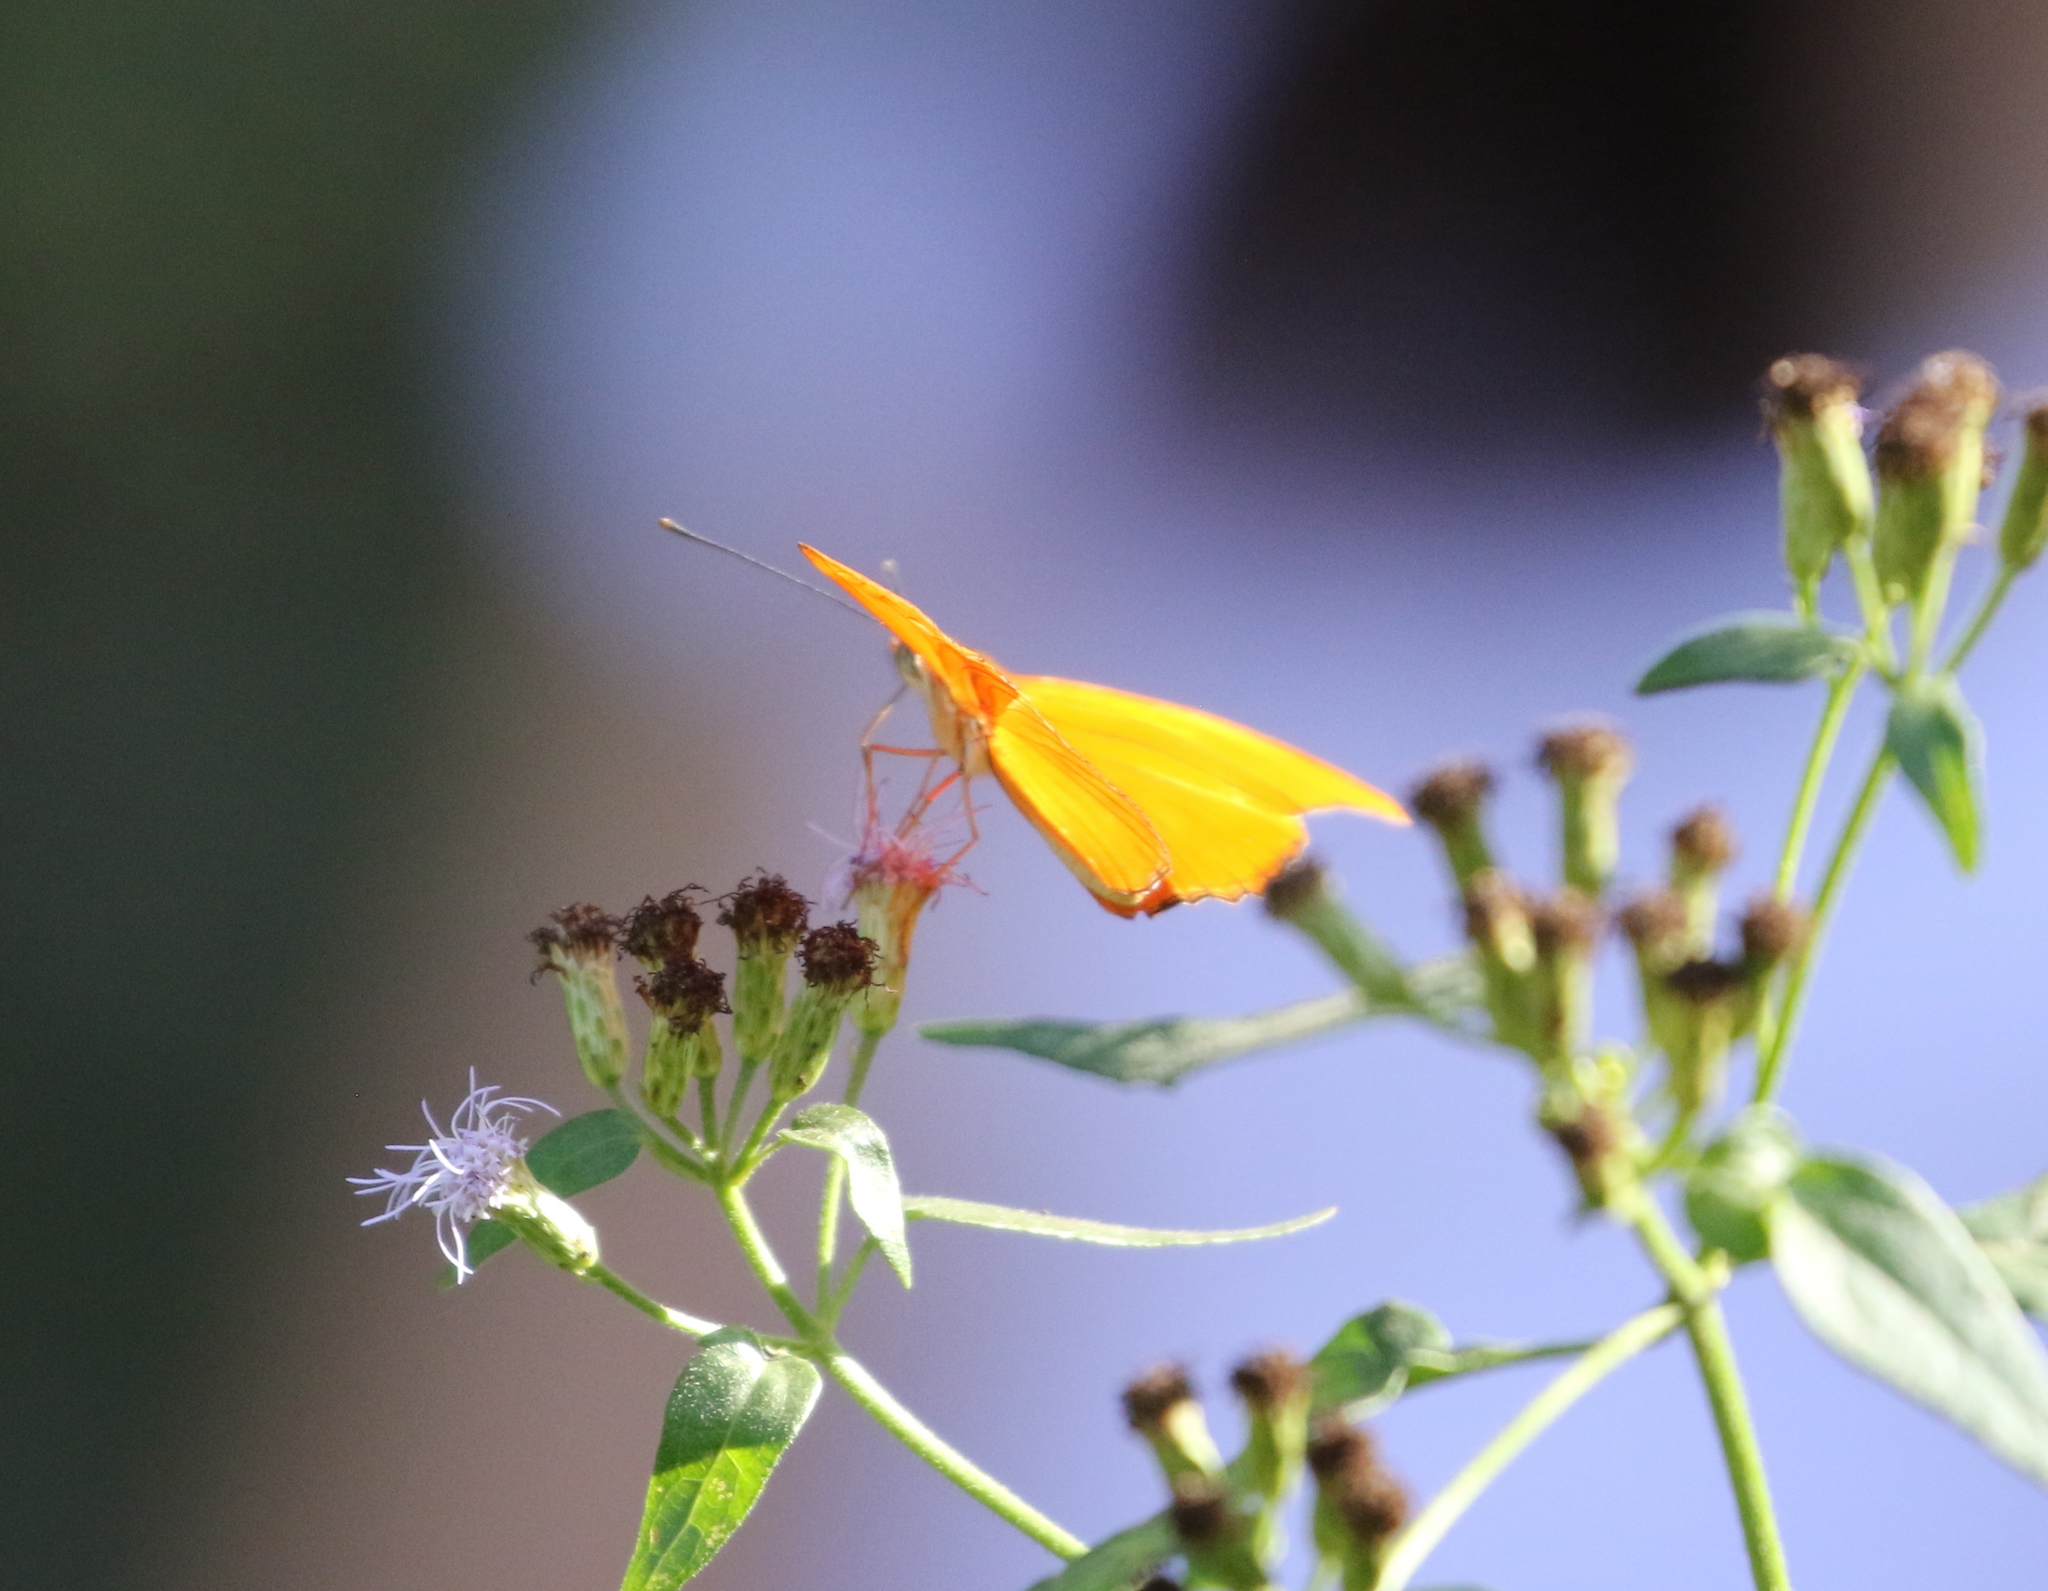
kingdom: Animalia
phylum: Arthropoda
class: Insecta
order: Lepidoptera
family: Nymphalidae
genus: Dryas
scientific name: Dryas iulia
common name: Flambeau
